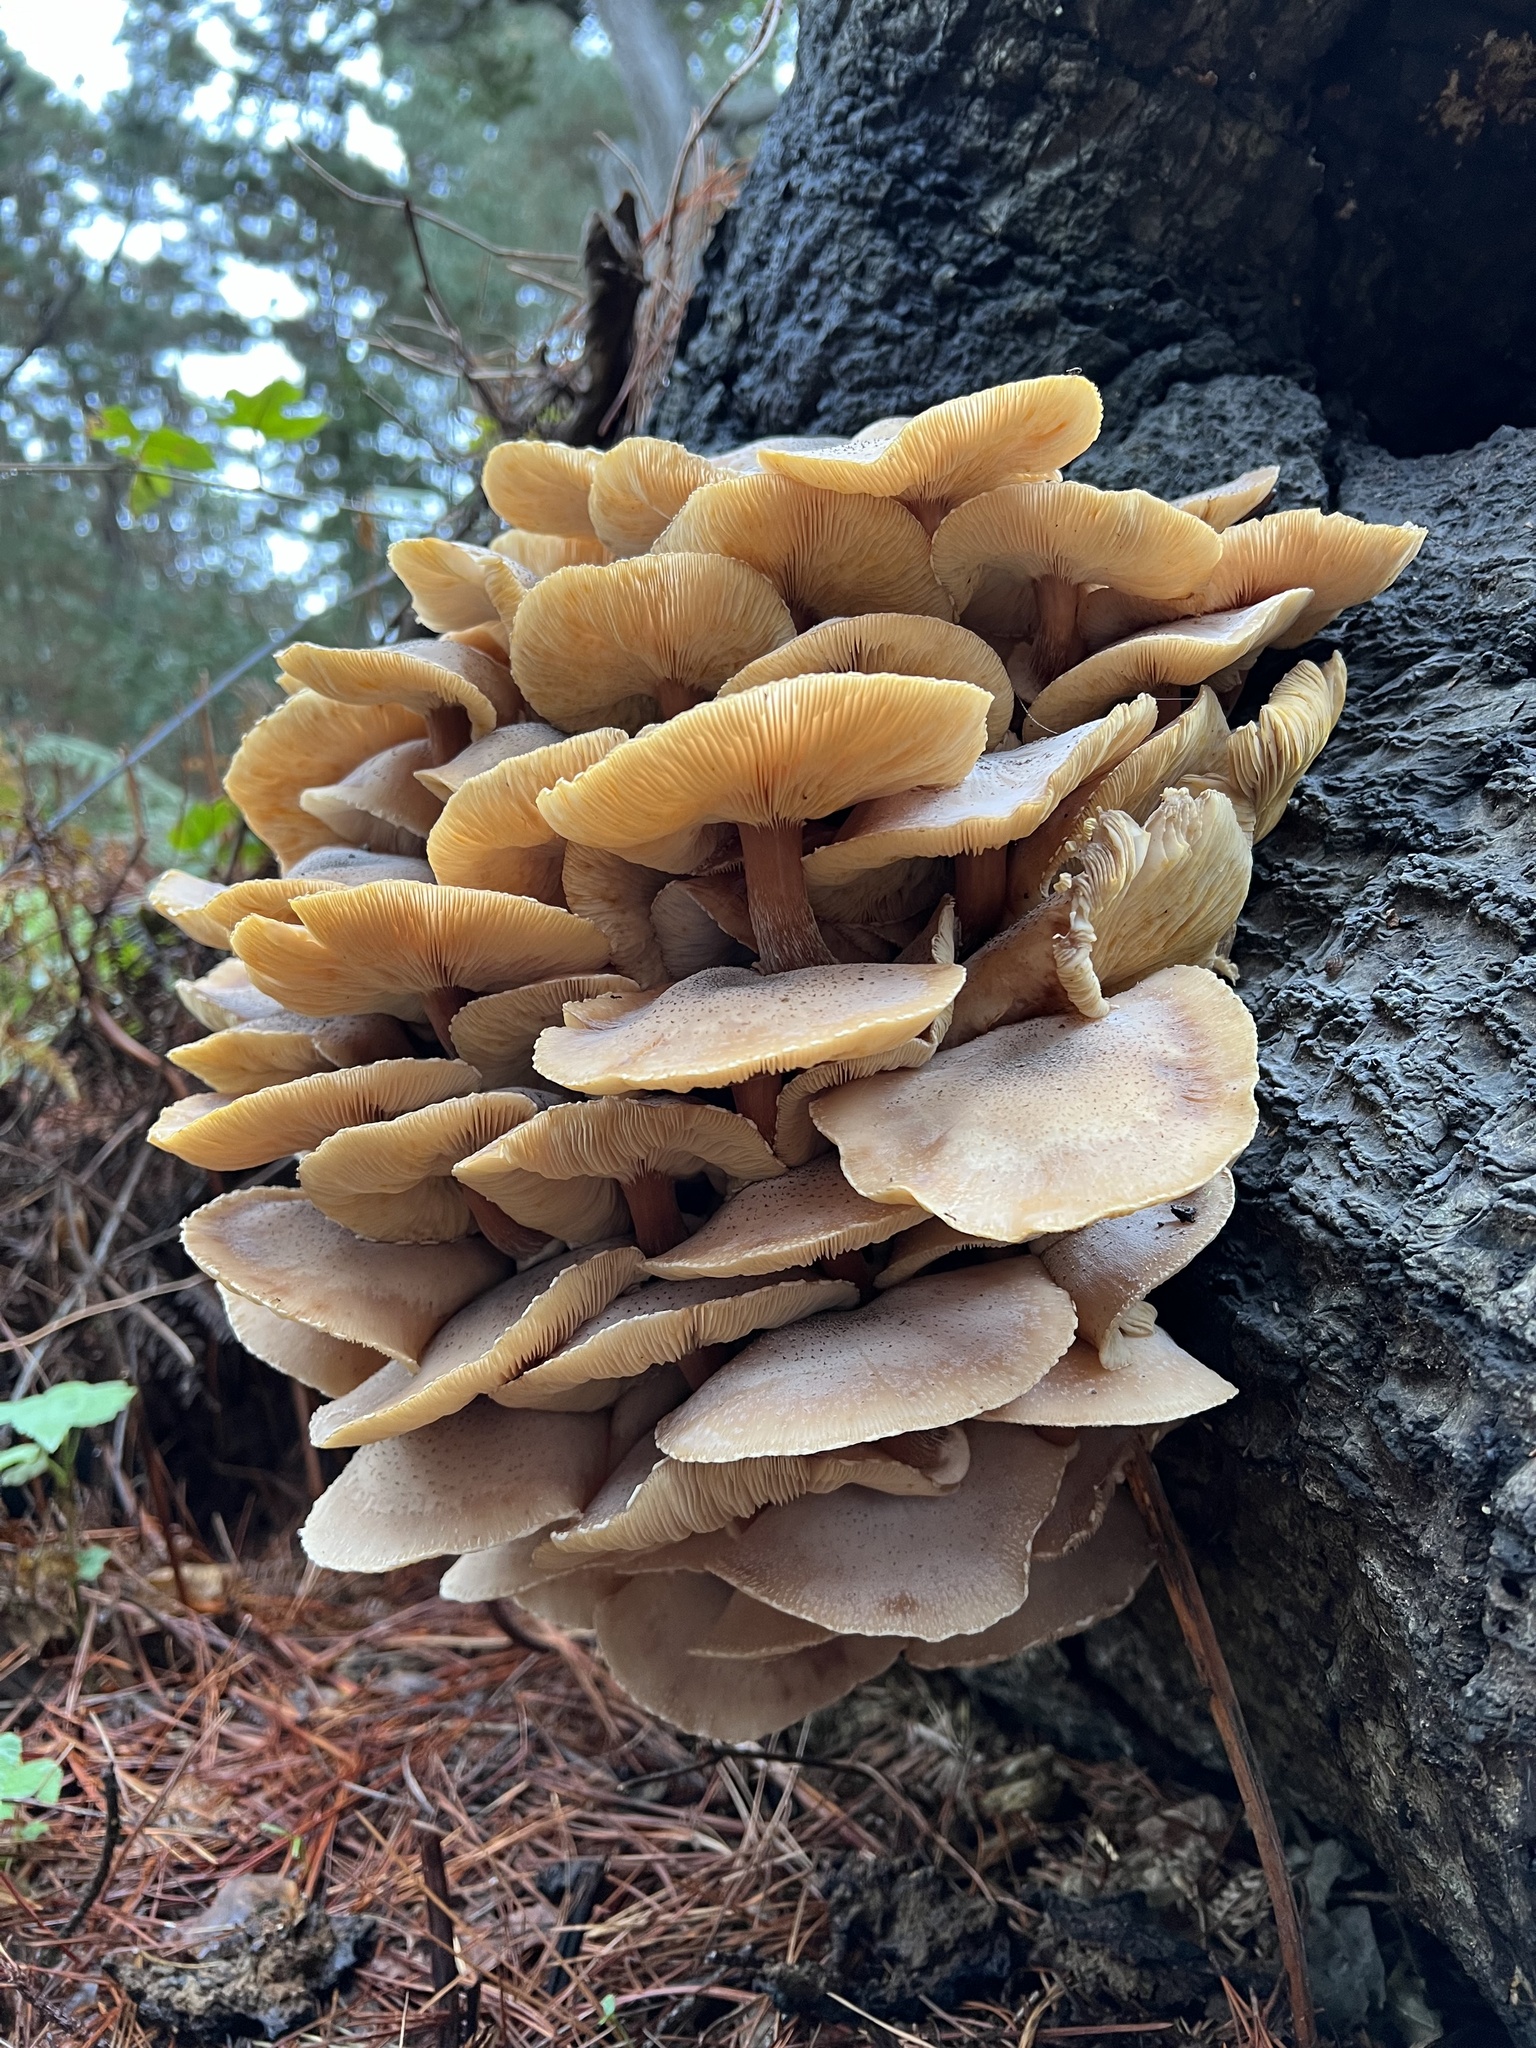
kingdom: Fungi
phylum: Basidiomycota
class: Agaricomycetes
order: Agaricales
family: Physalacriaceae
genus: Armillaria
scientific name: Armillaria mellea
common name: Honey fungus
